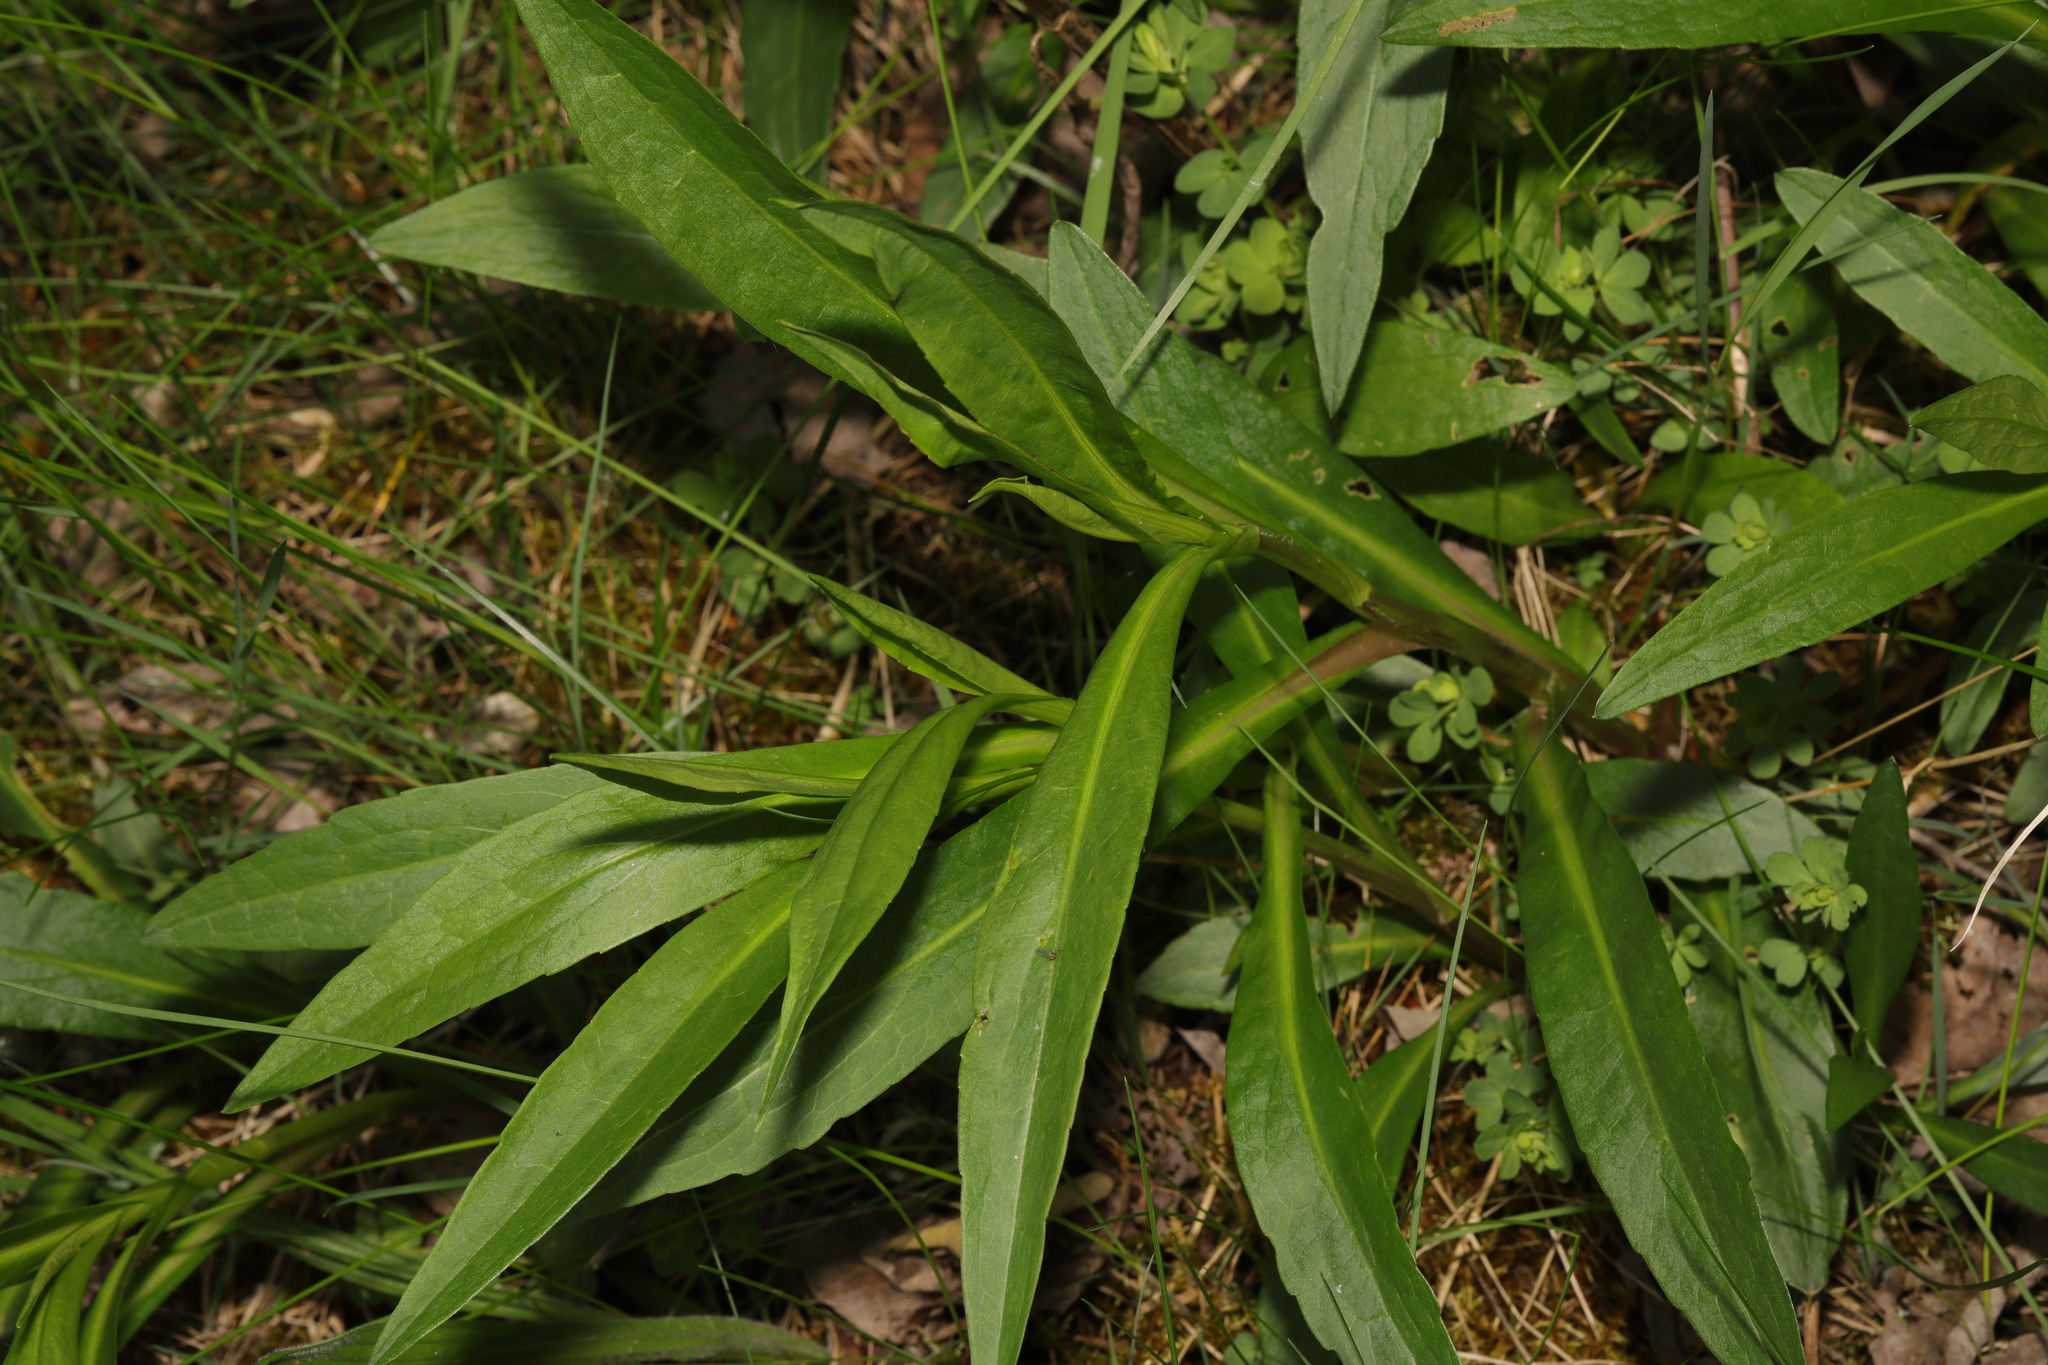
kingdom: Plantae
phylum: Tracheophyta
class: Magnoliopsida
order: Asterales
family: Asteraceae
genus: Symphyotrichum
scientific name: Symphyotrichum
